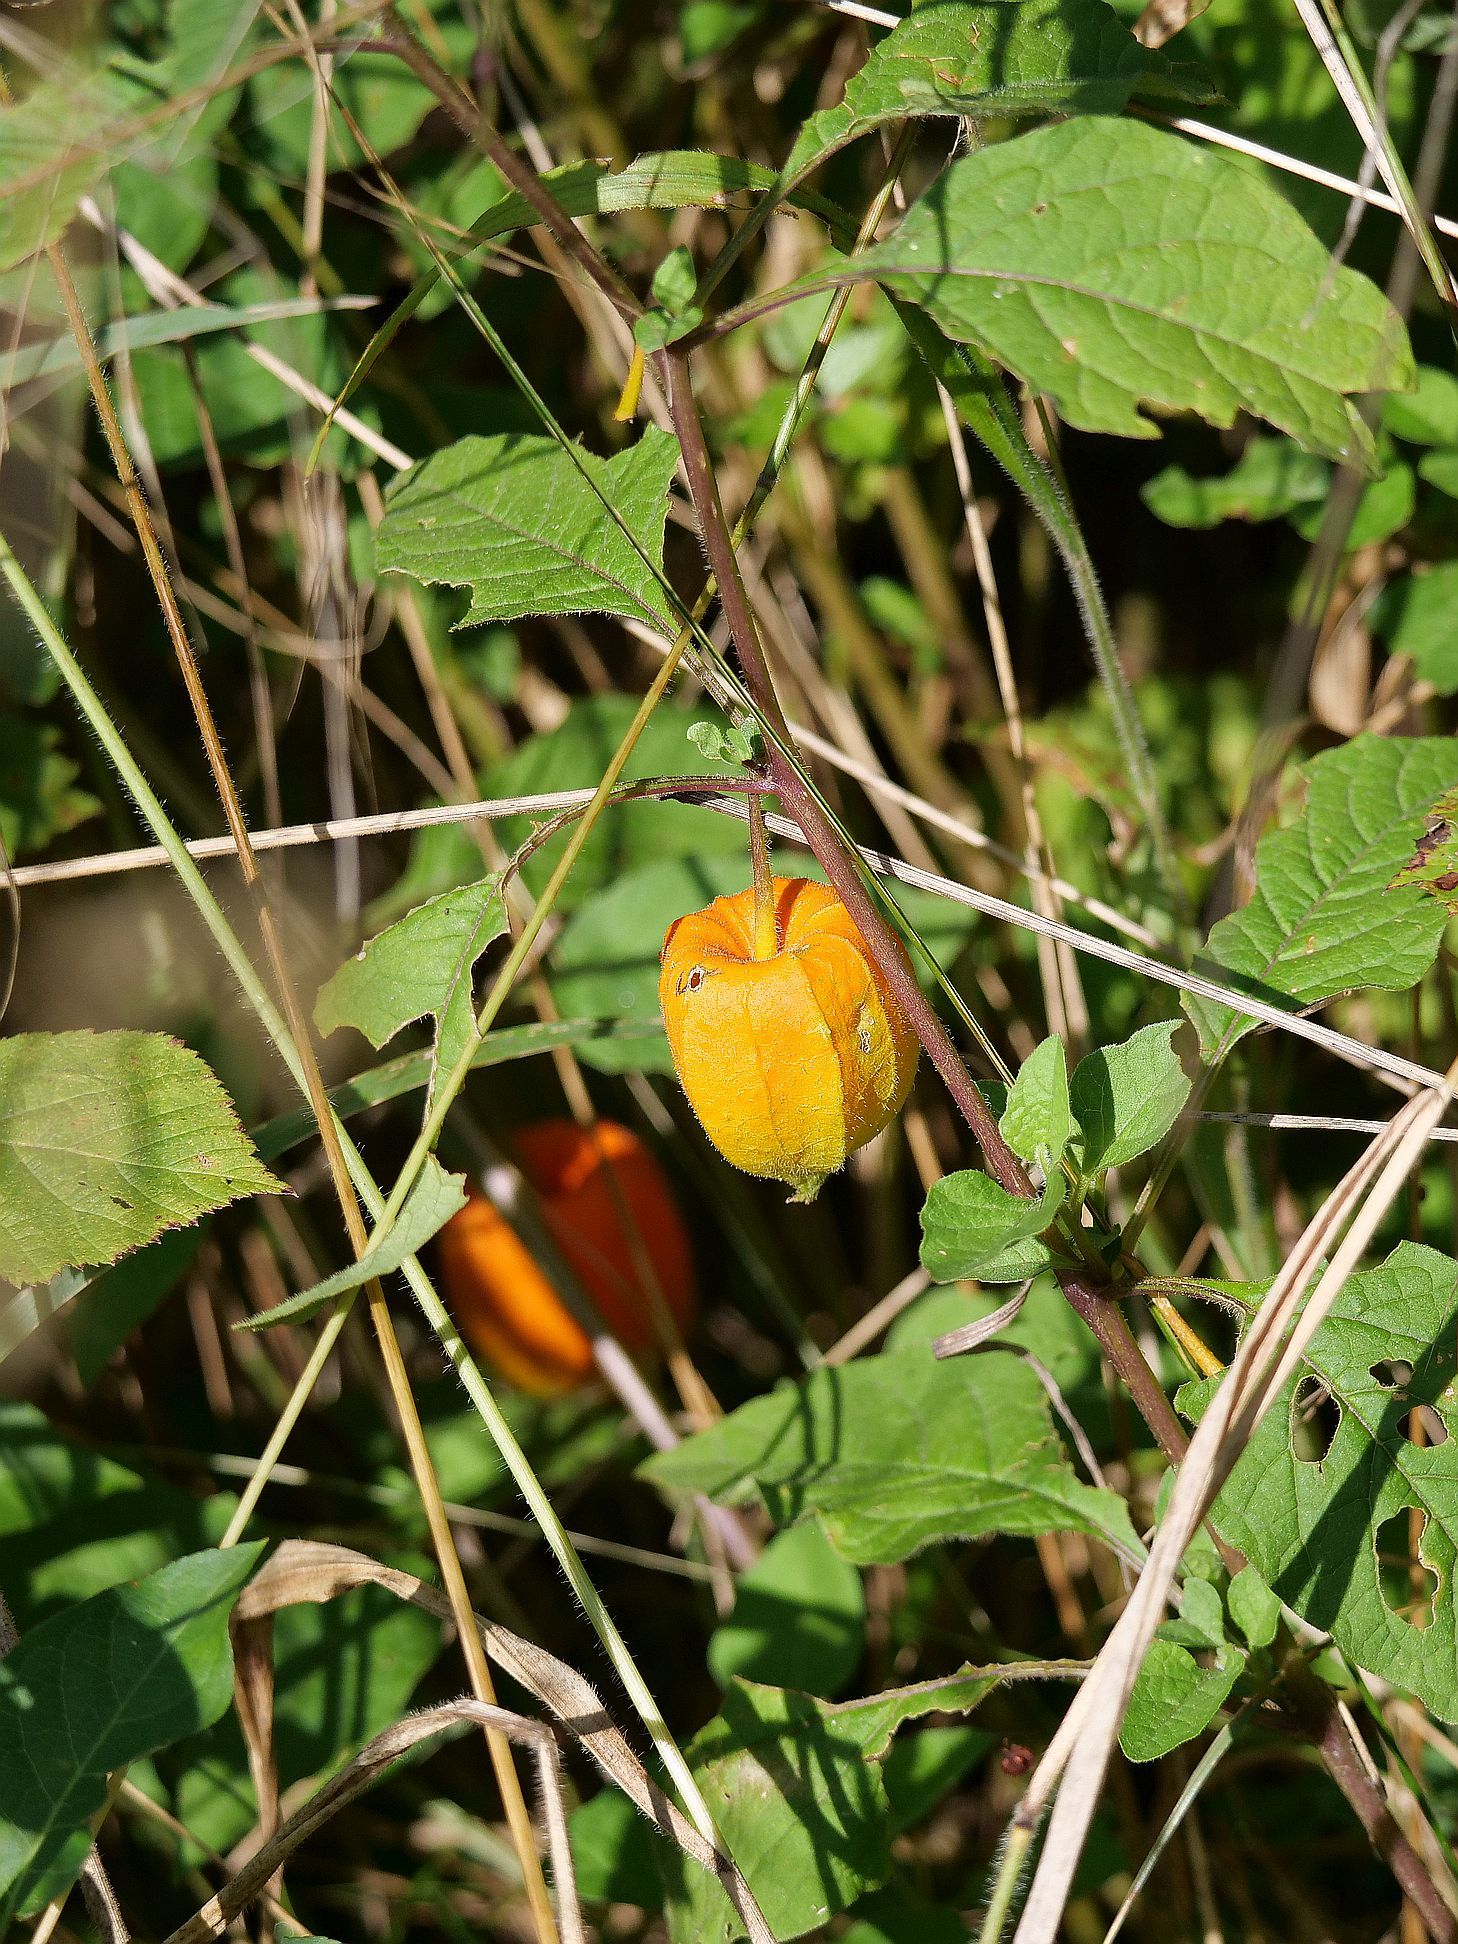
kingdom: Plantae
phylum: Tracheophyta
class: Magnoliopsida
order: Solanales
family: Solanaceae
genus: Alkekengi
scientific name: Alkekengi officinarum
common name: Japanese-lantern
